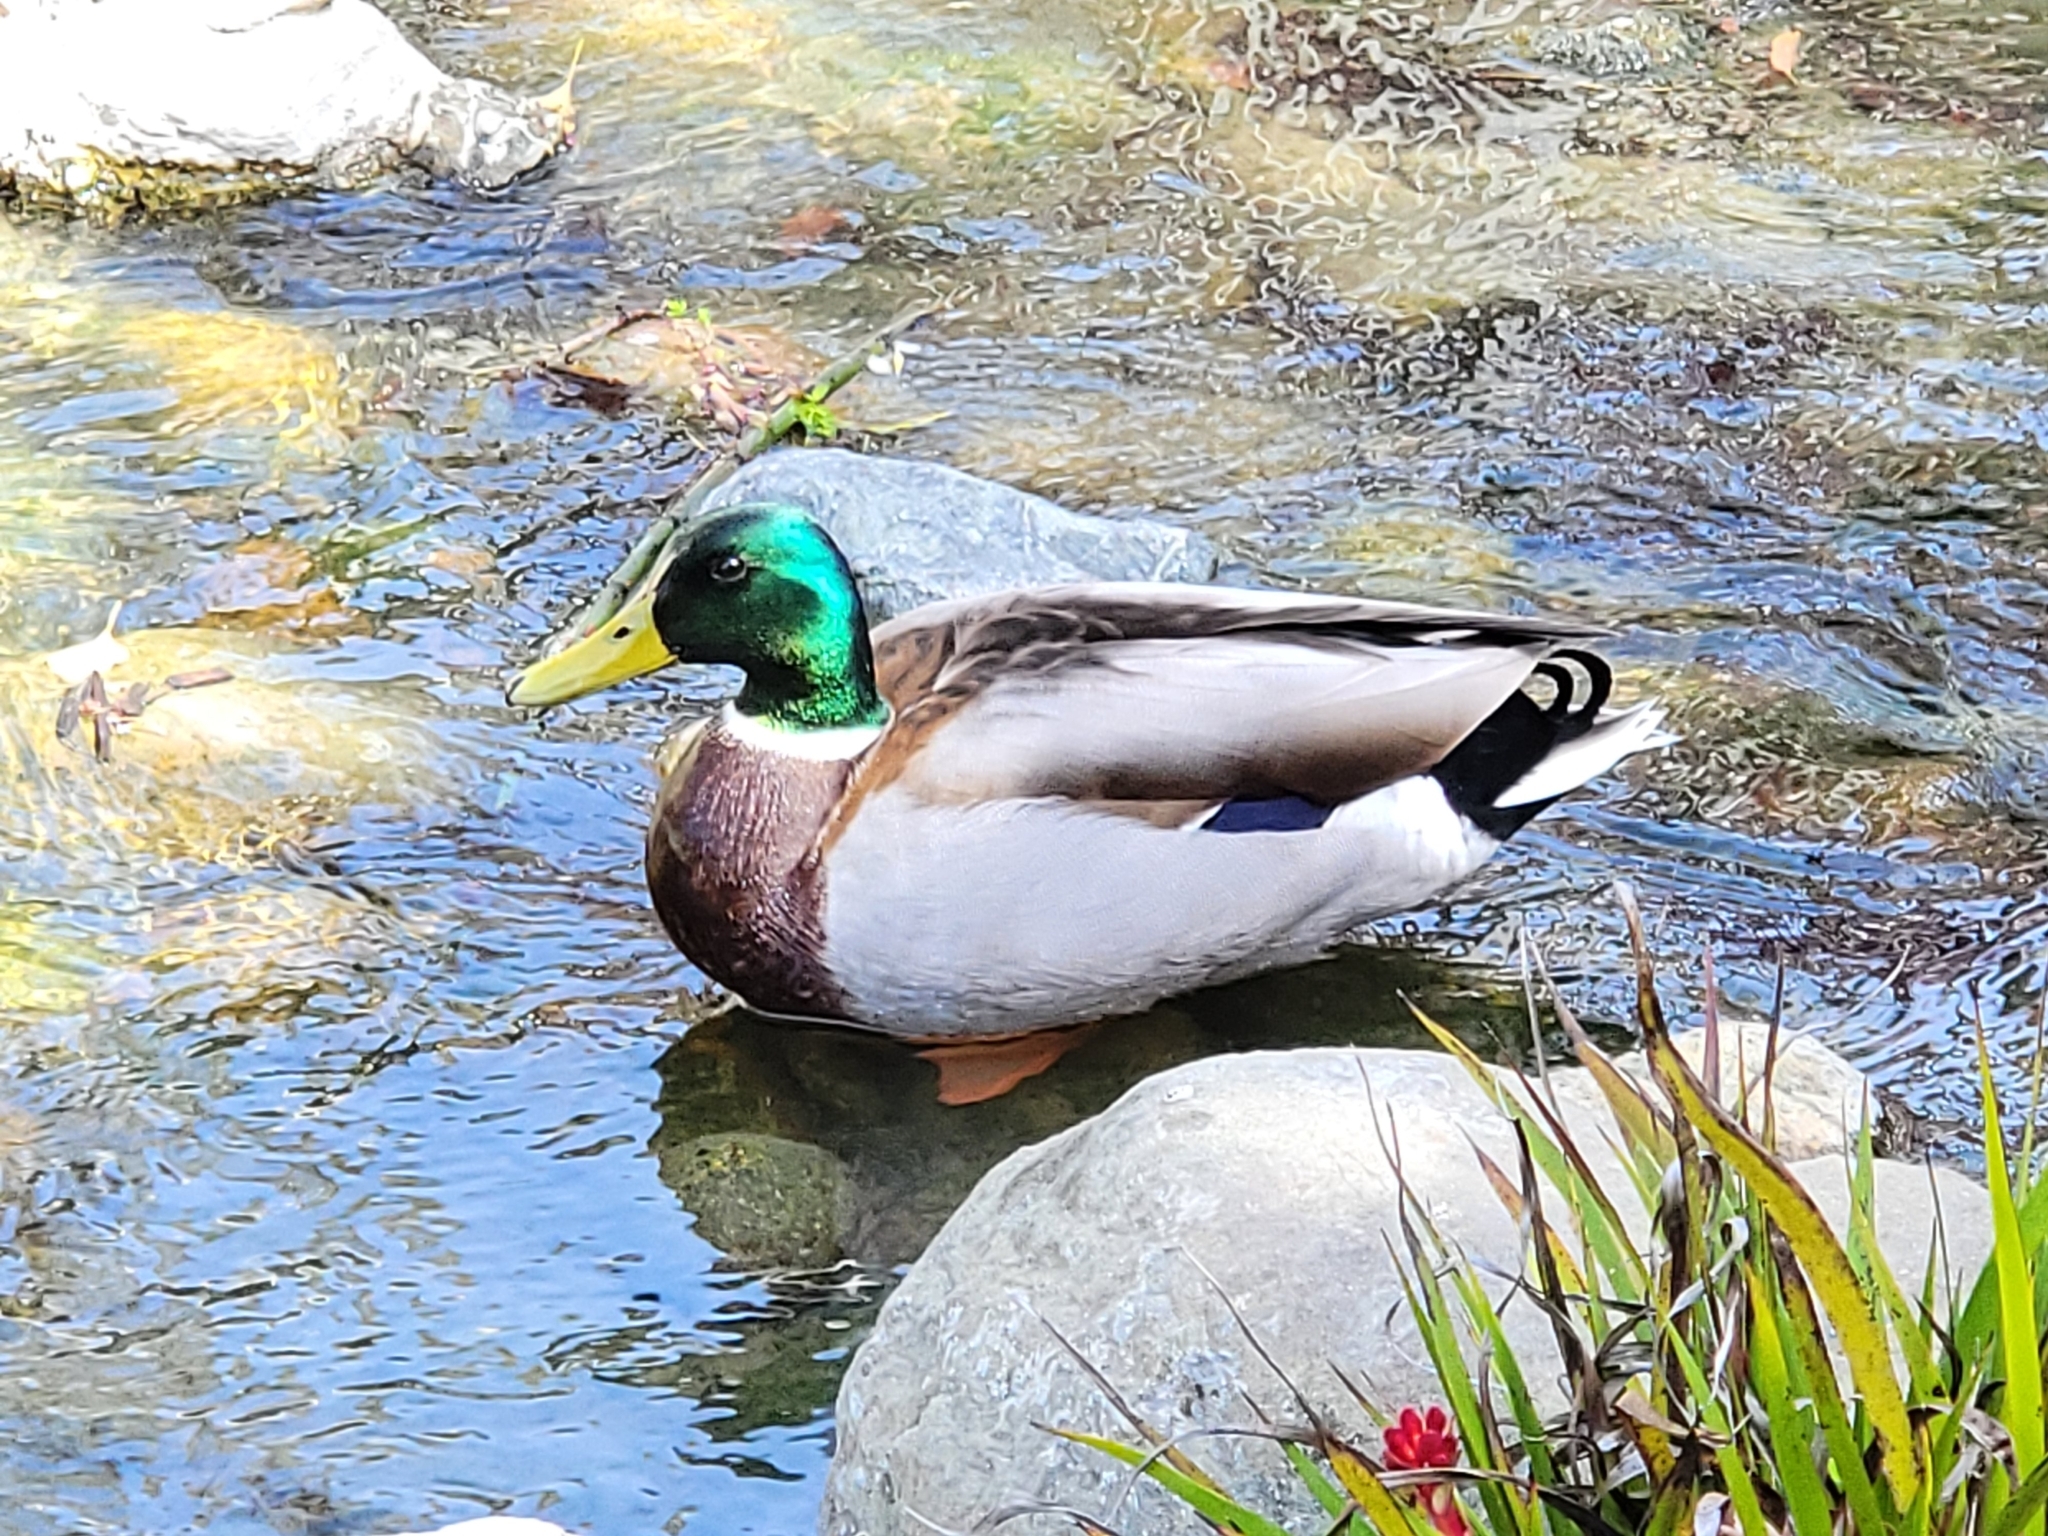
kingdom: Animalia
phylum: Chordata
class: Aves
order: Anseriformes
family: Anatidae
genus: Anas
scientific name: Anas platyrhynchos
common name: Mallard
